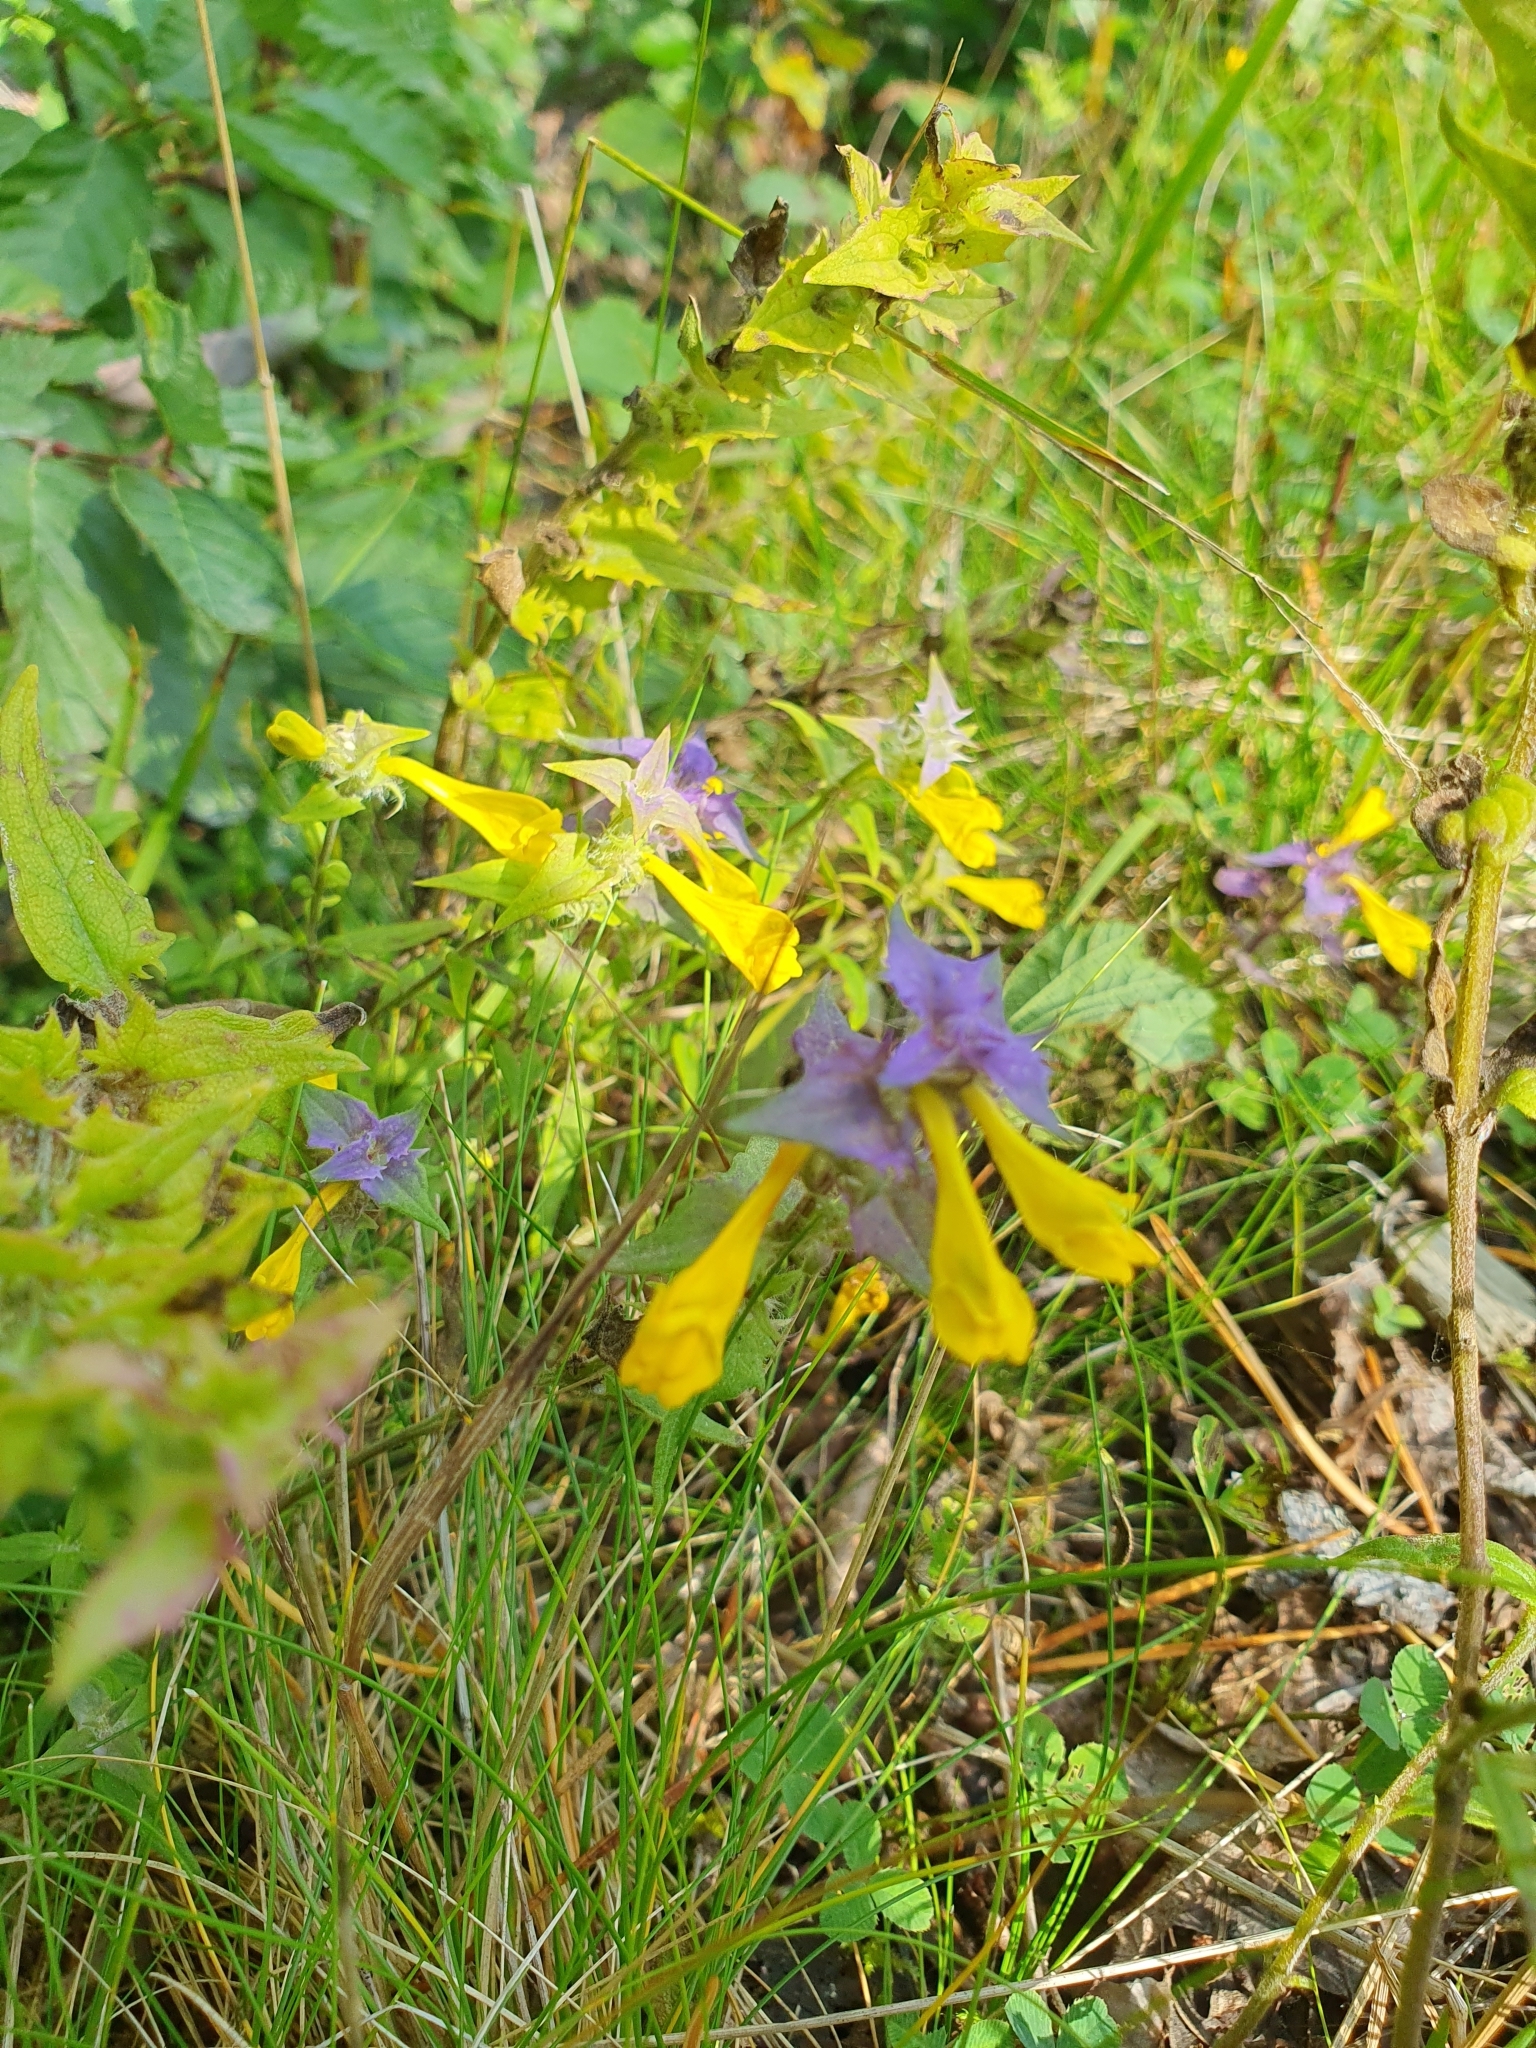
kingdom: Plantae
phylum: Tracheophyta
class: Magnoliopsida
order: Lamiales
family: Orobanchaceae
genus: Melampyrum
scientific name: Melampyrum nemorosum
